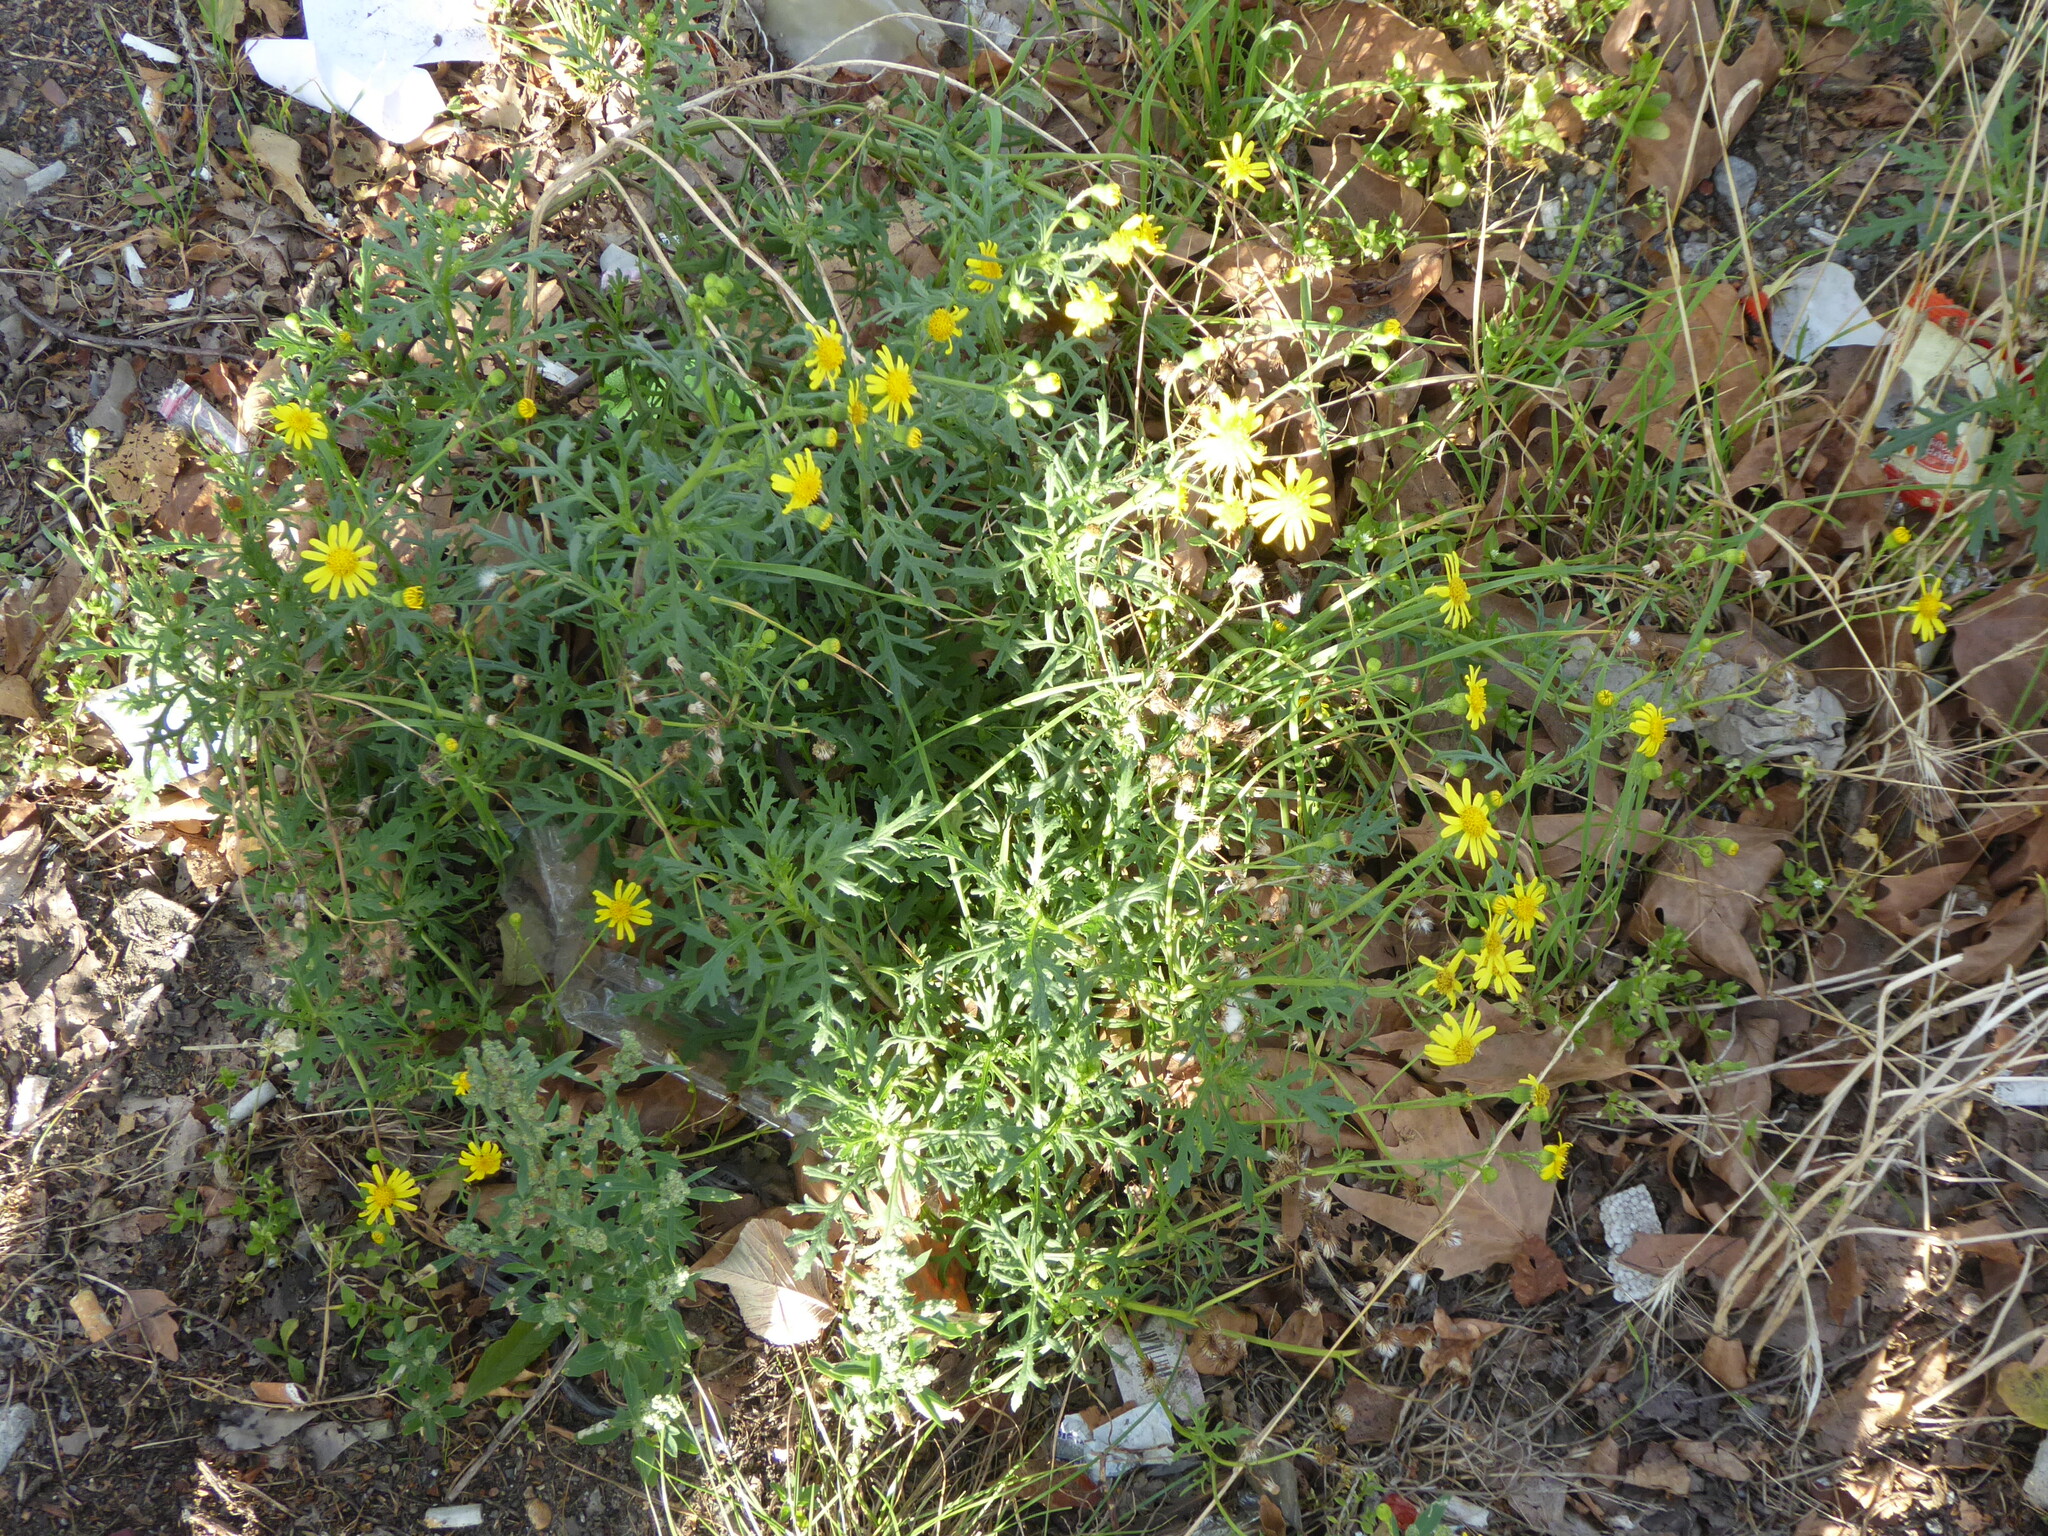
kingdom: Plantae
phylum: Tracheophyta
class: Magnoliopsida
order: Asterales
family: Asteraceae
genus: Senecio
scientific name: Senecio squalidus
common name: Oxford ragwort
